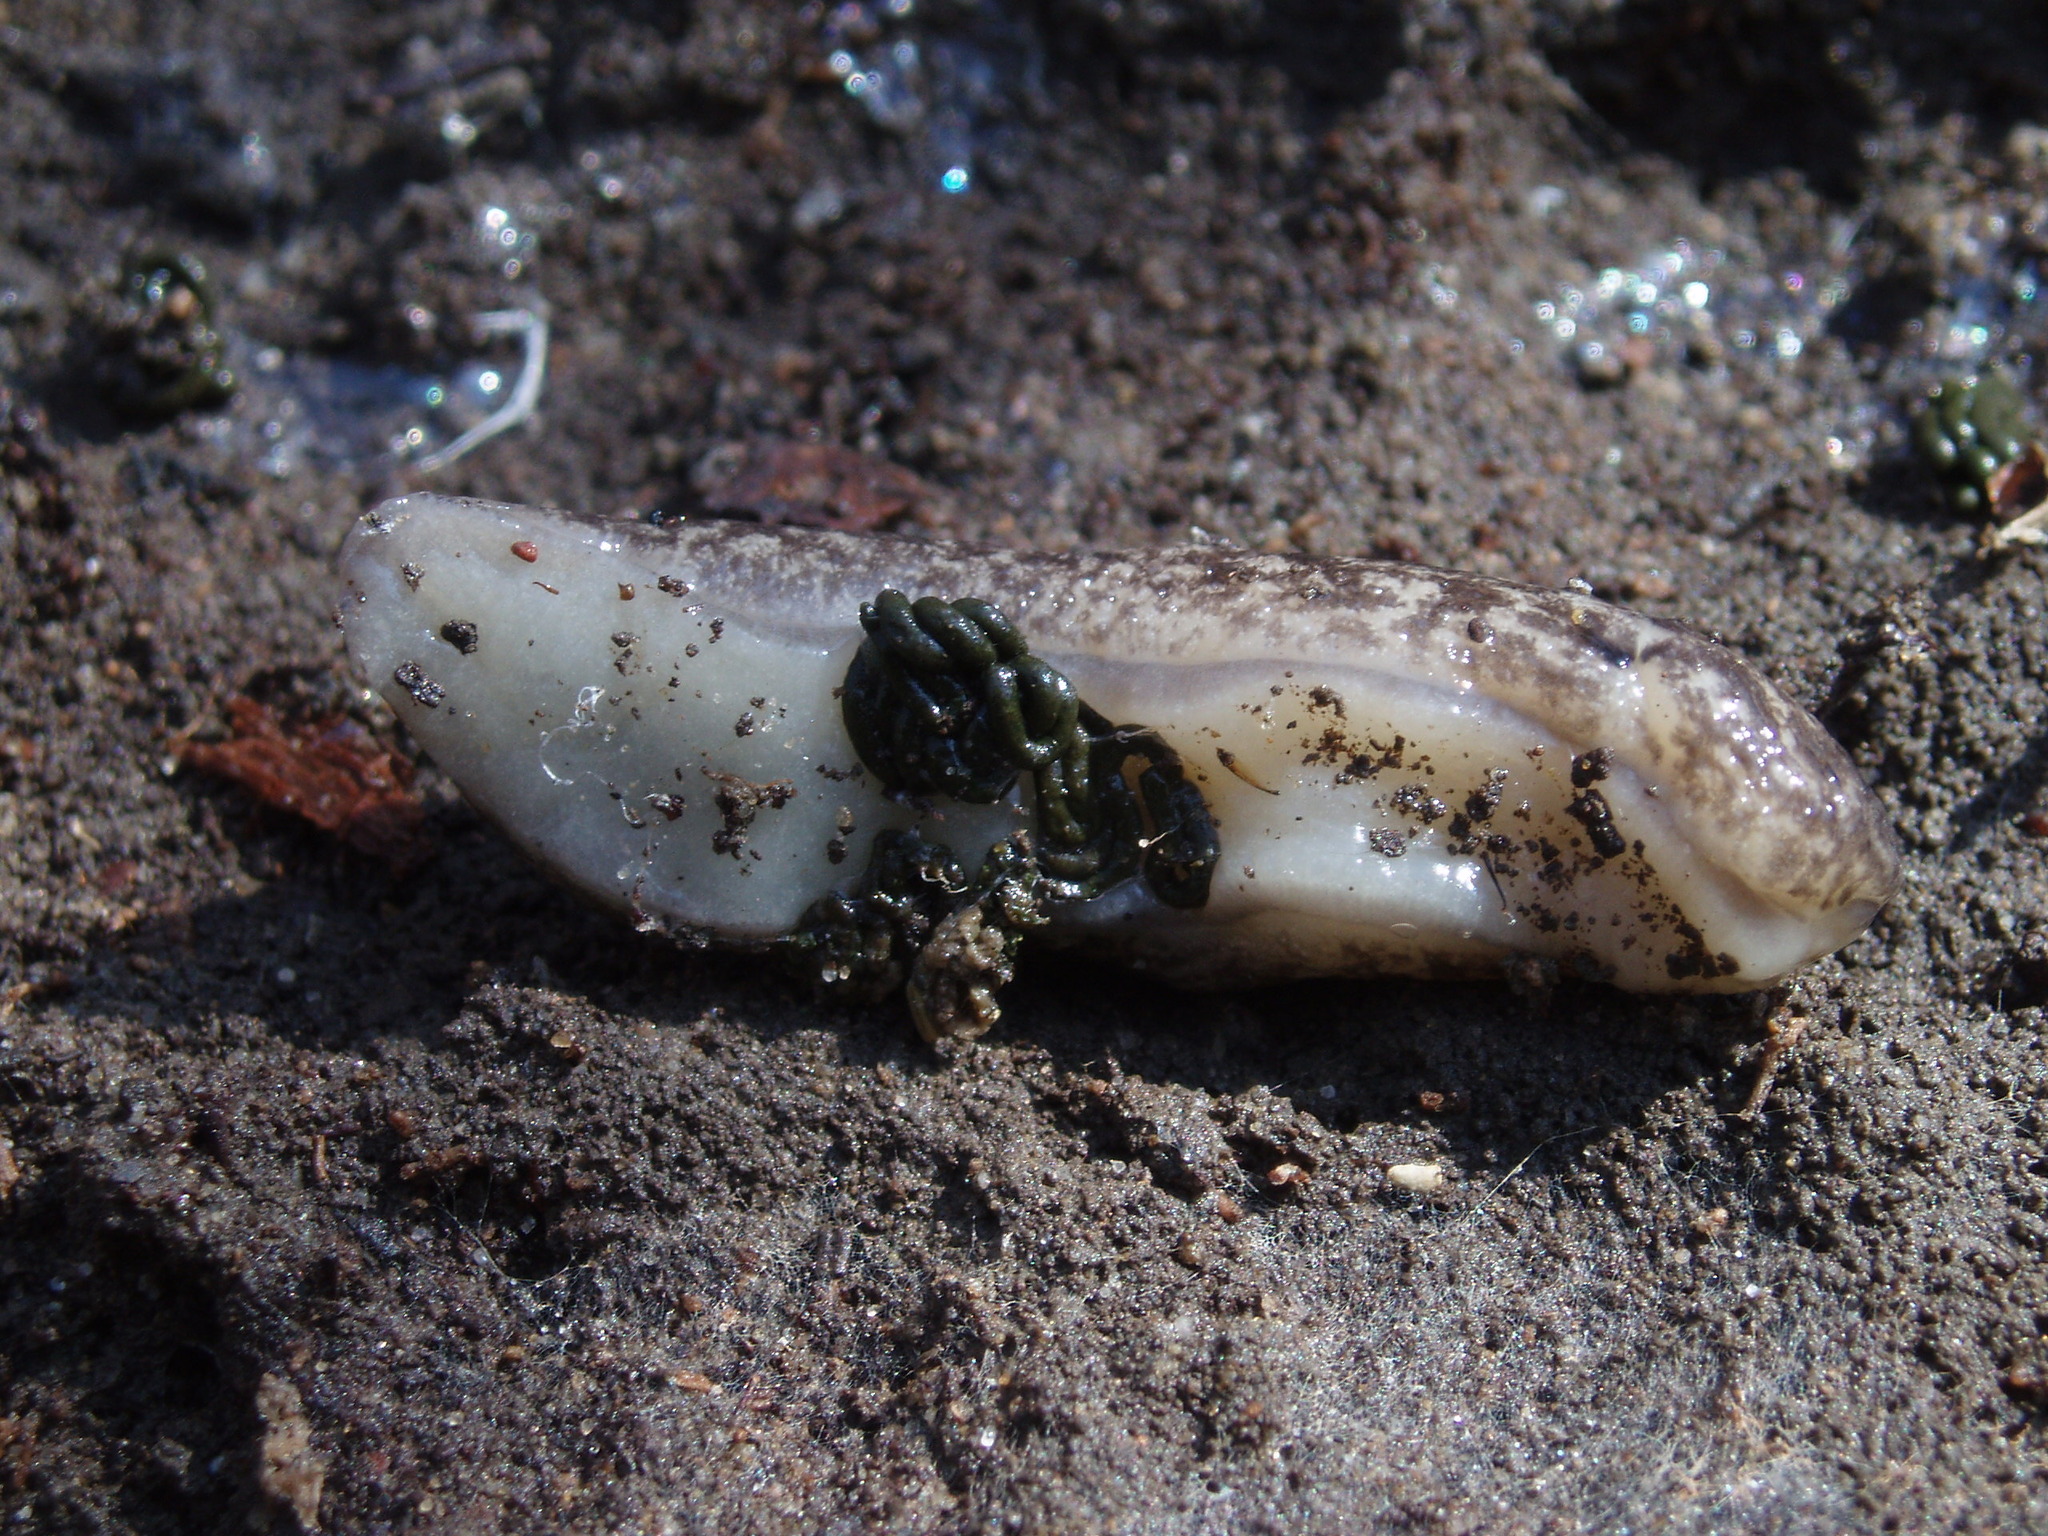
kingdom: Animalia
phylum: Mollusca
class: Gastropoda
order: Stylommatophora
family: Philomycidae
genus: Megapallifera
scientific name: Megapallifera mutabilis
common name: Changeable mantleslug
